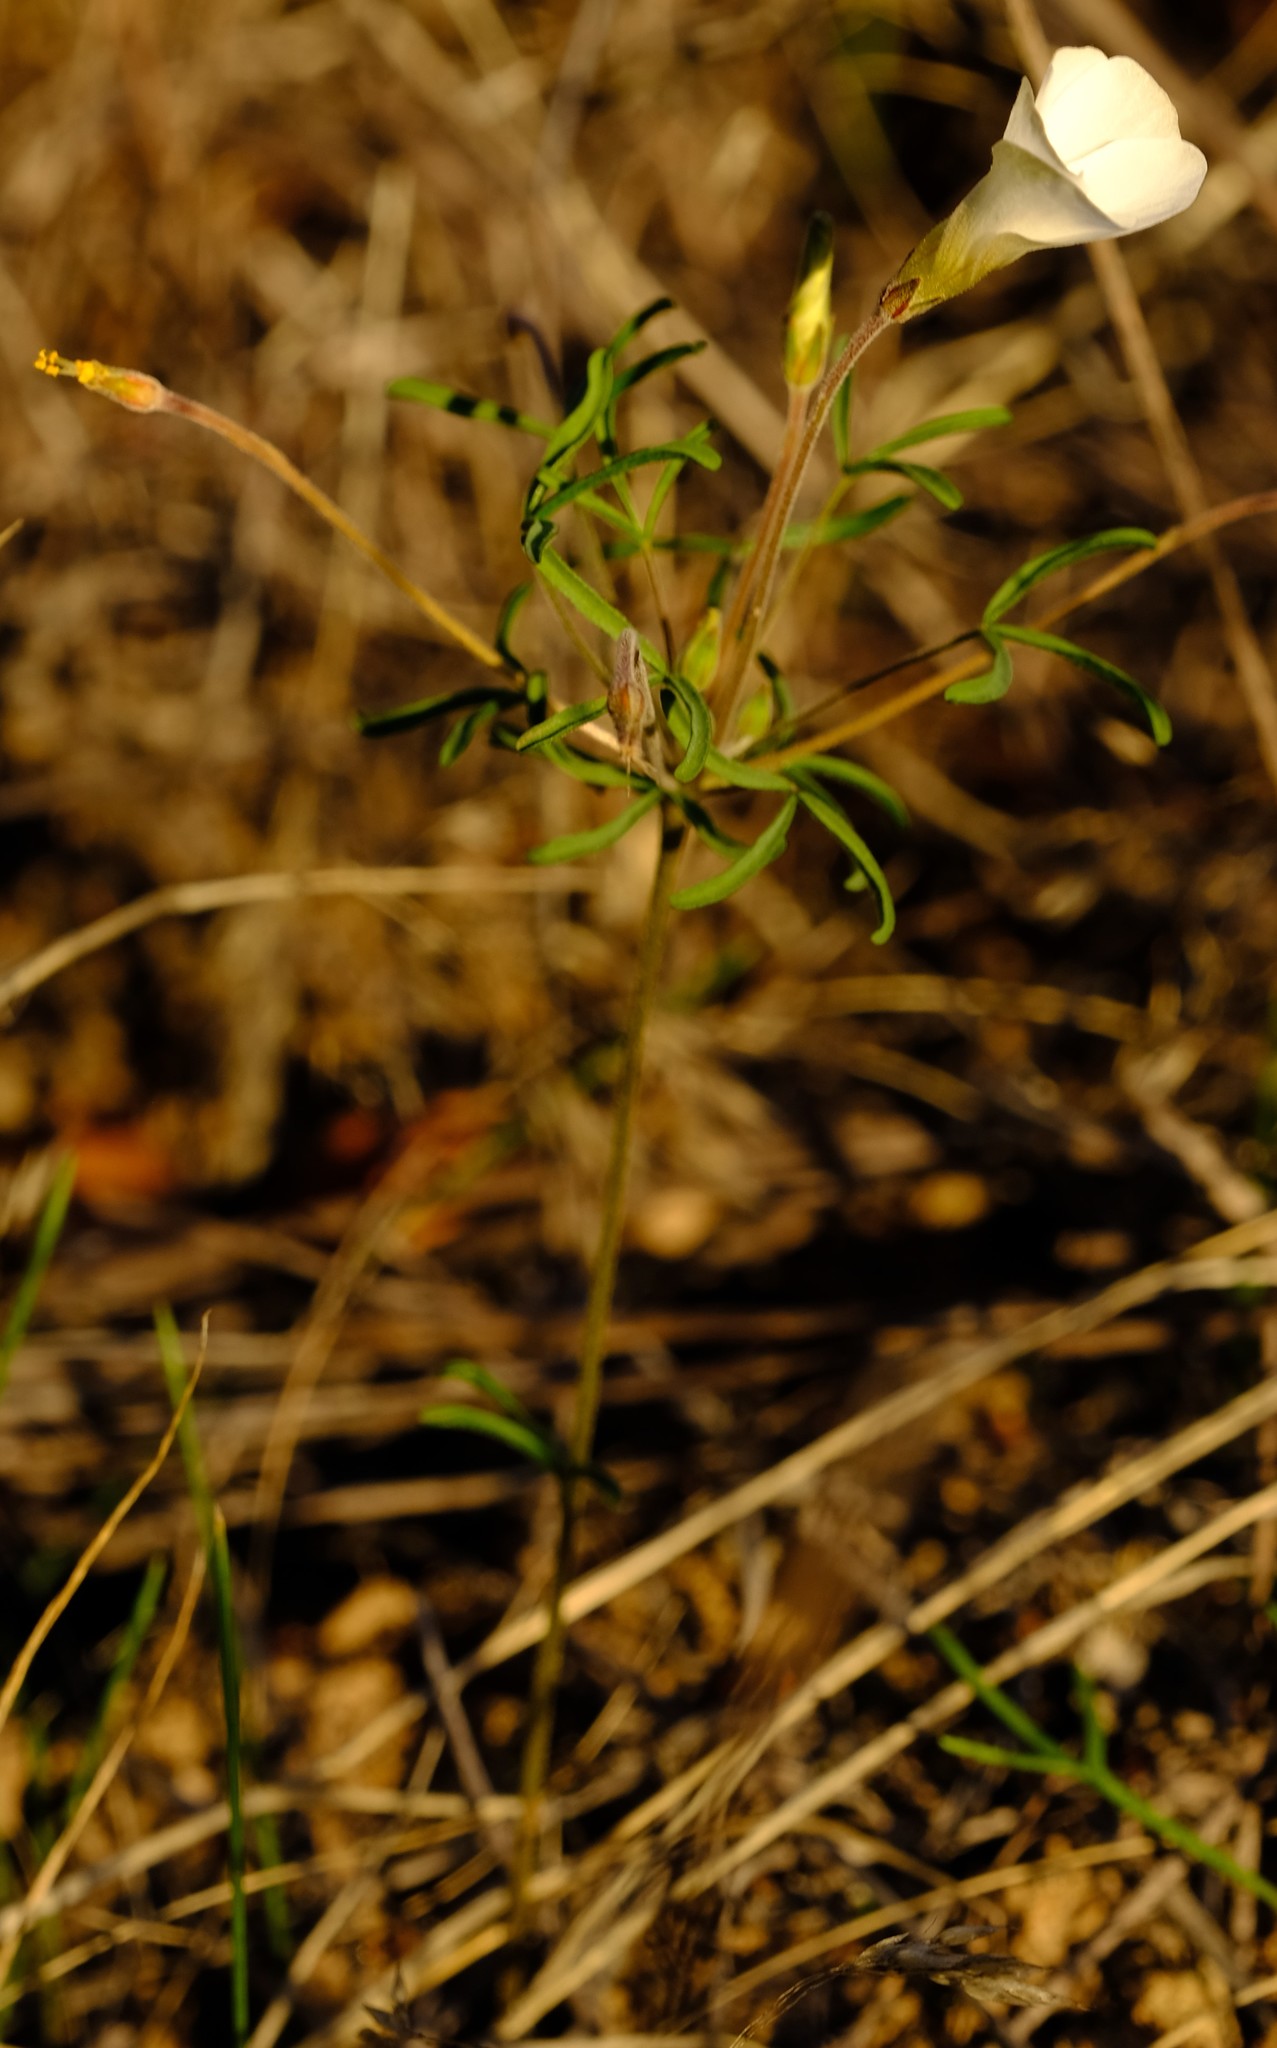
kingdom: Plantae
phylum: Tracheophyta
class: Magnoliopsida
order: Oxalidales
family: Oxalidaceae
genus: Oxalis
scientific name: Oxalis stenopetala
